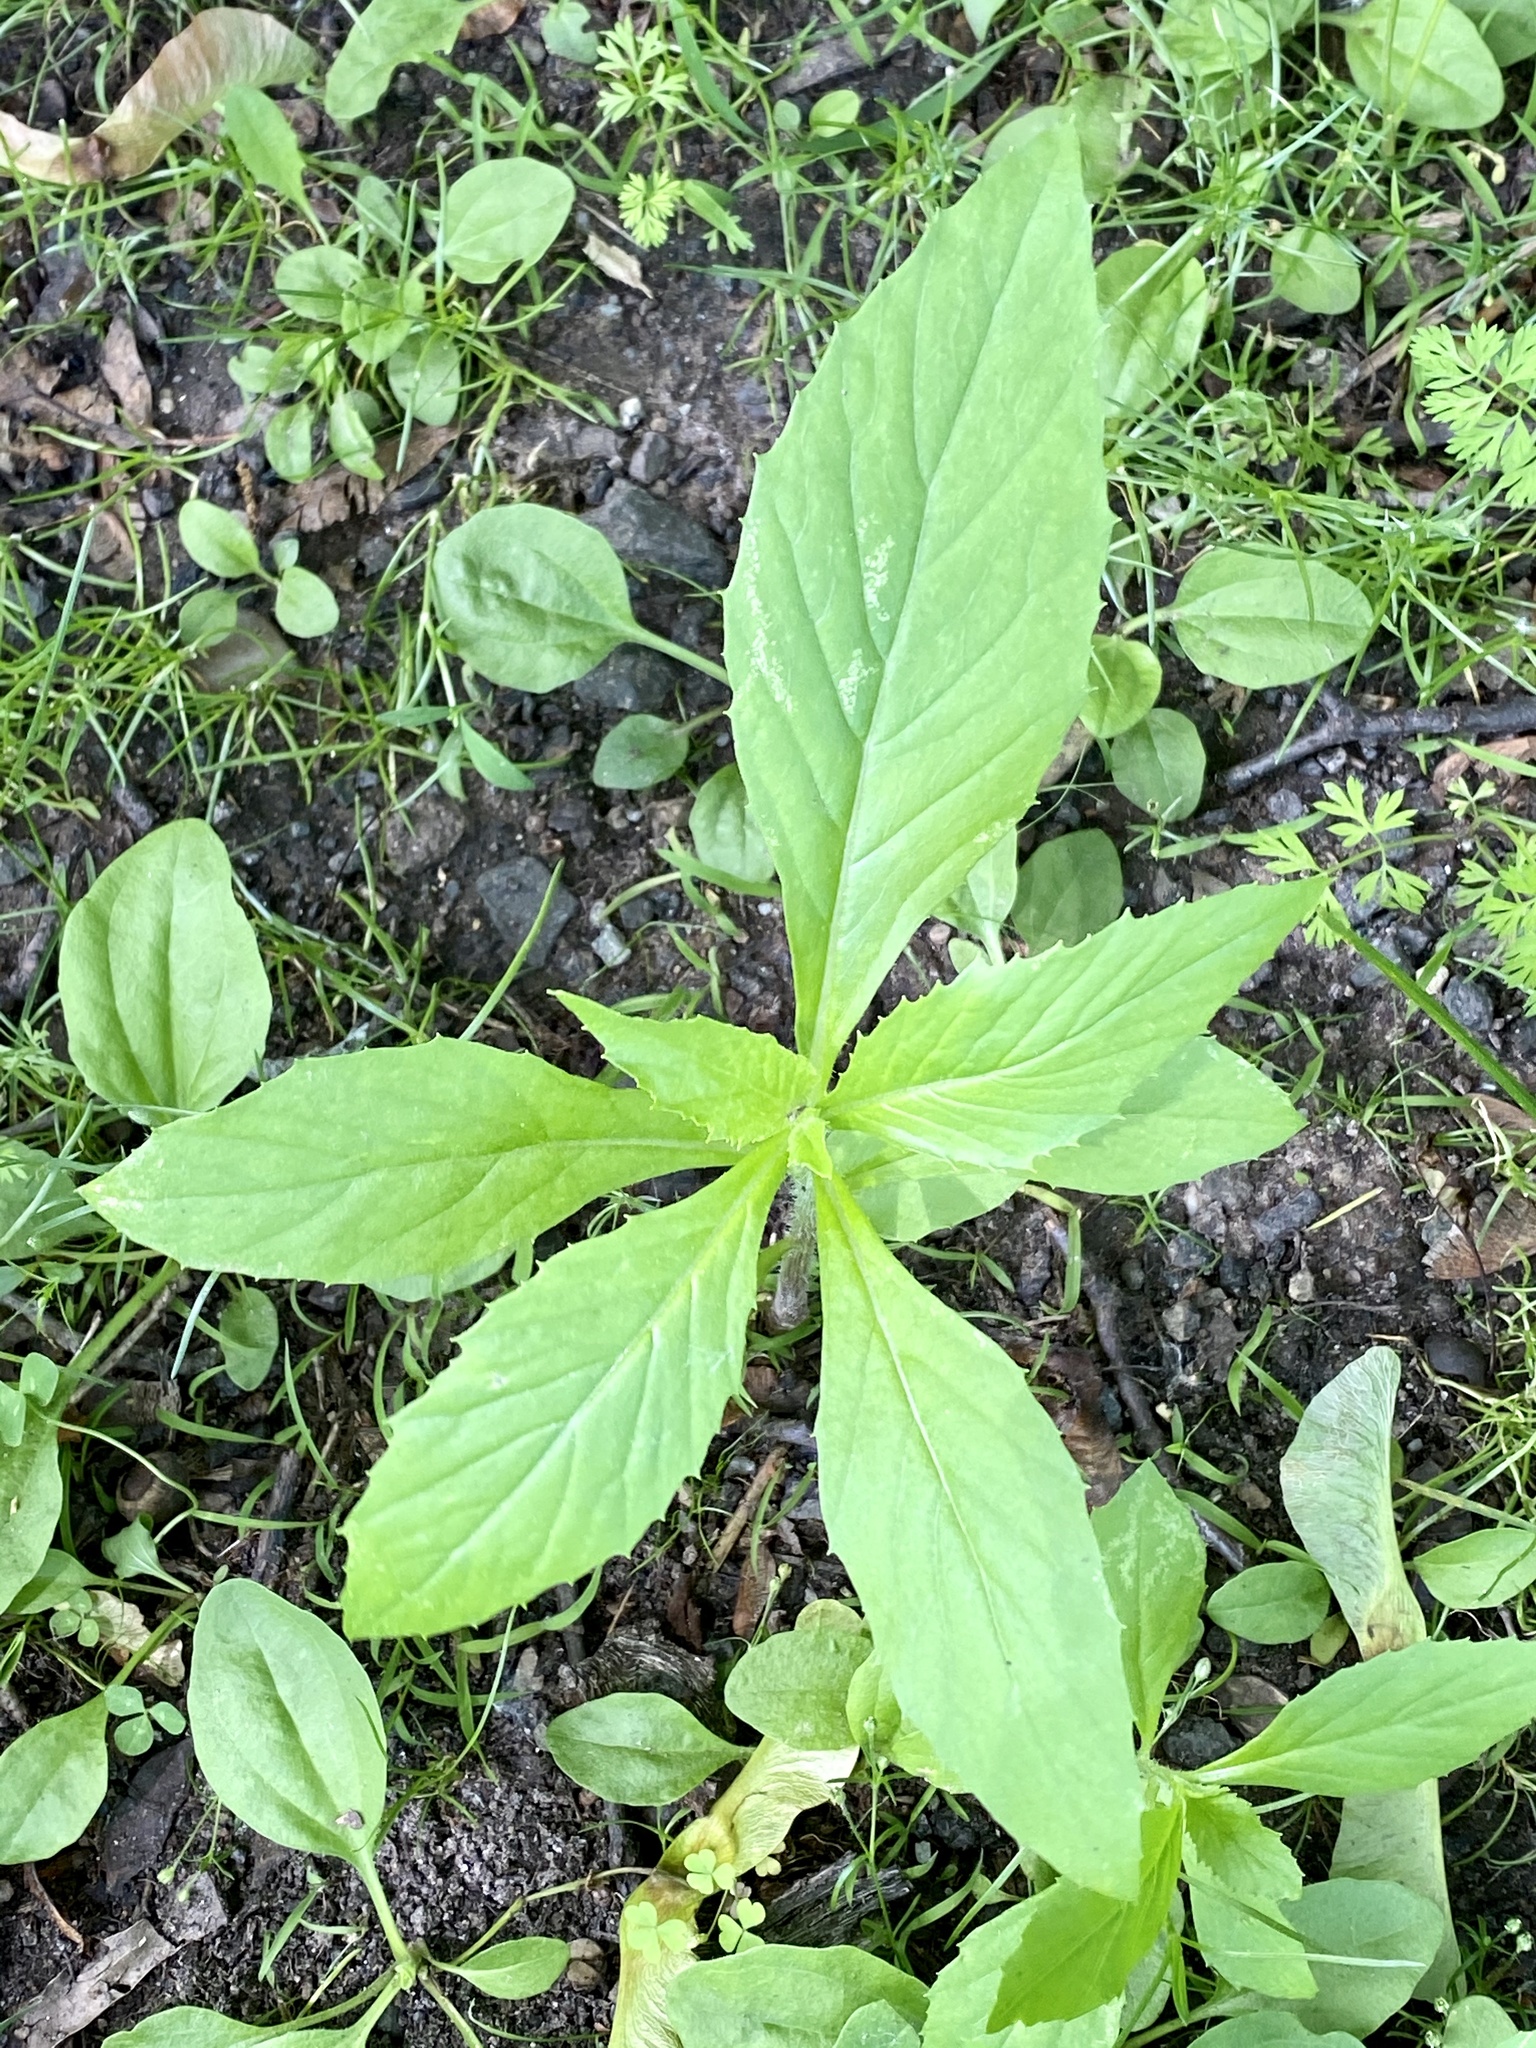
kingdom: Plantae
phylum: Tracheophyta
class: Magnoliopsida
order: Asterales
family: Asteraceae
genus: Erechtites
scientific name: Erechtites hieraciifolius
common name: American burnweed
